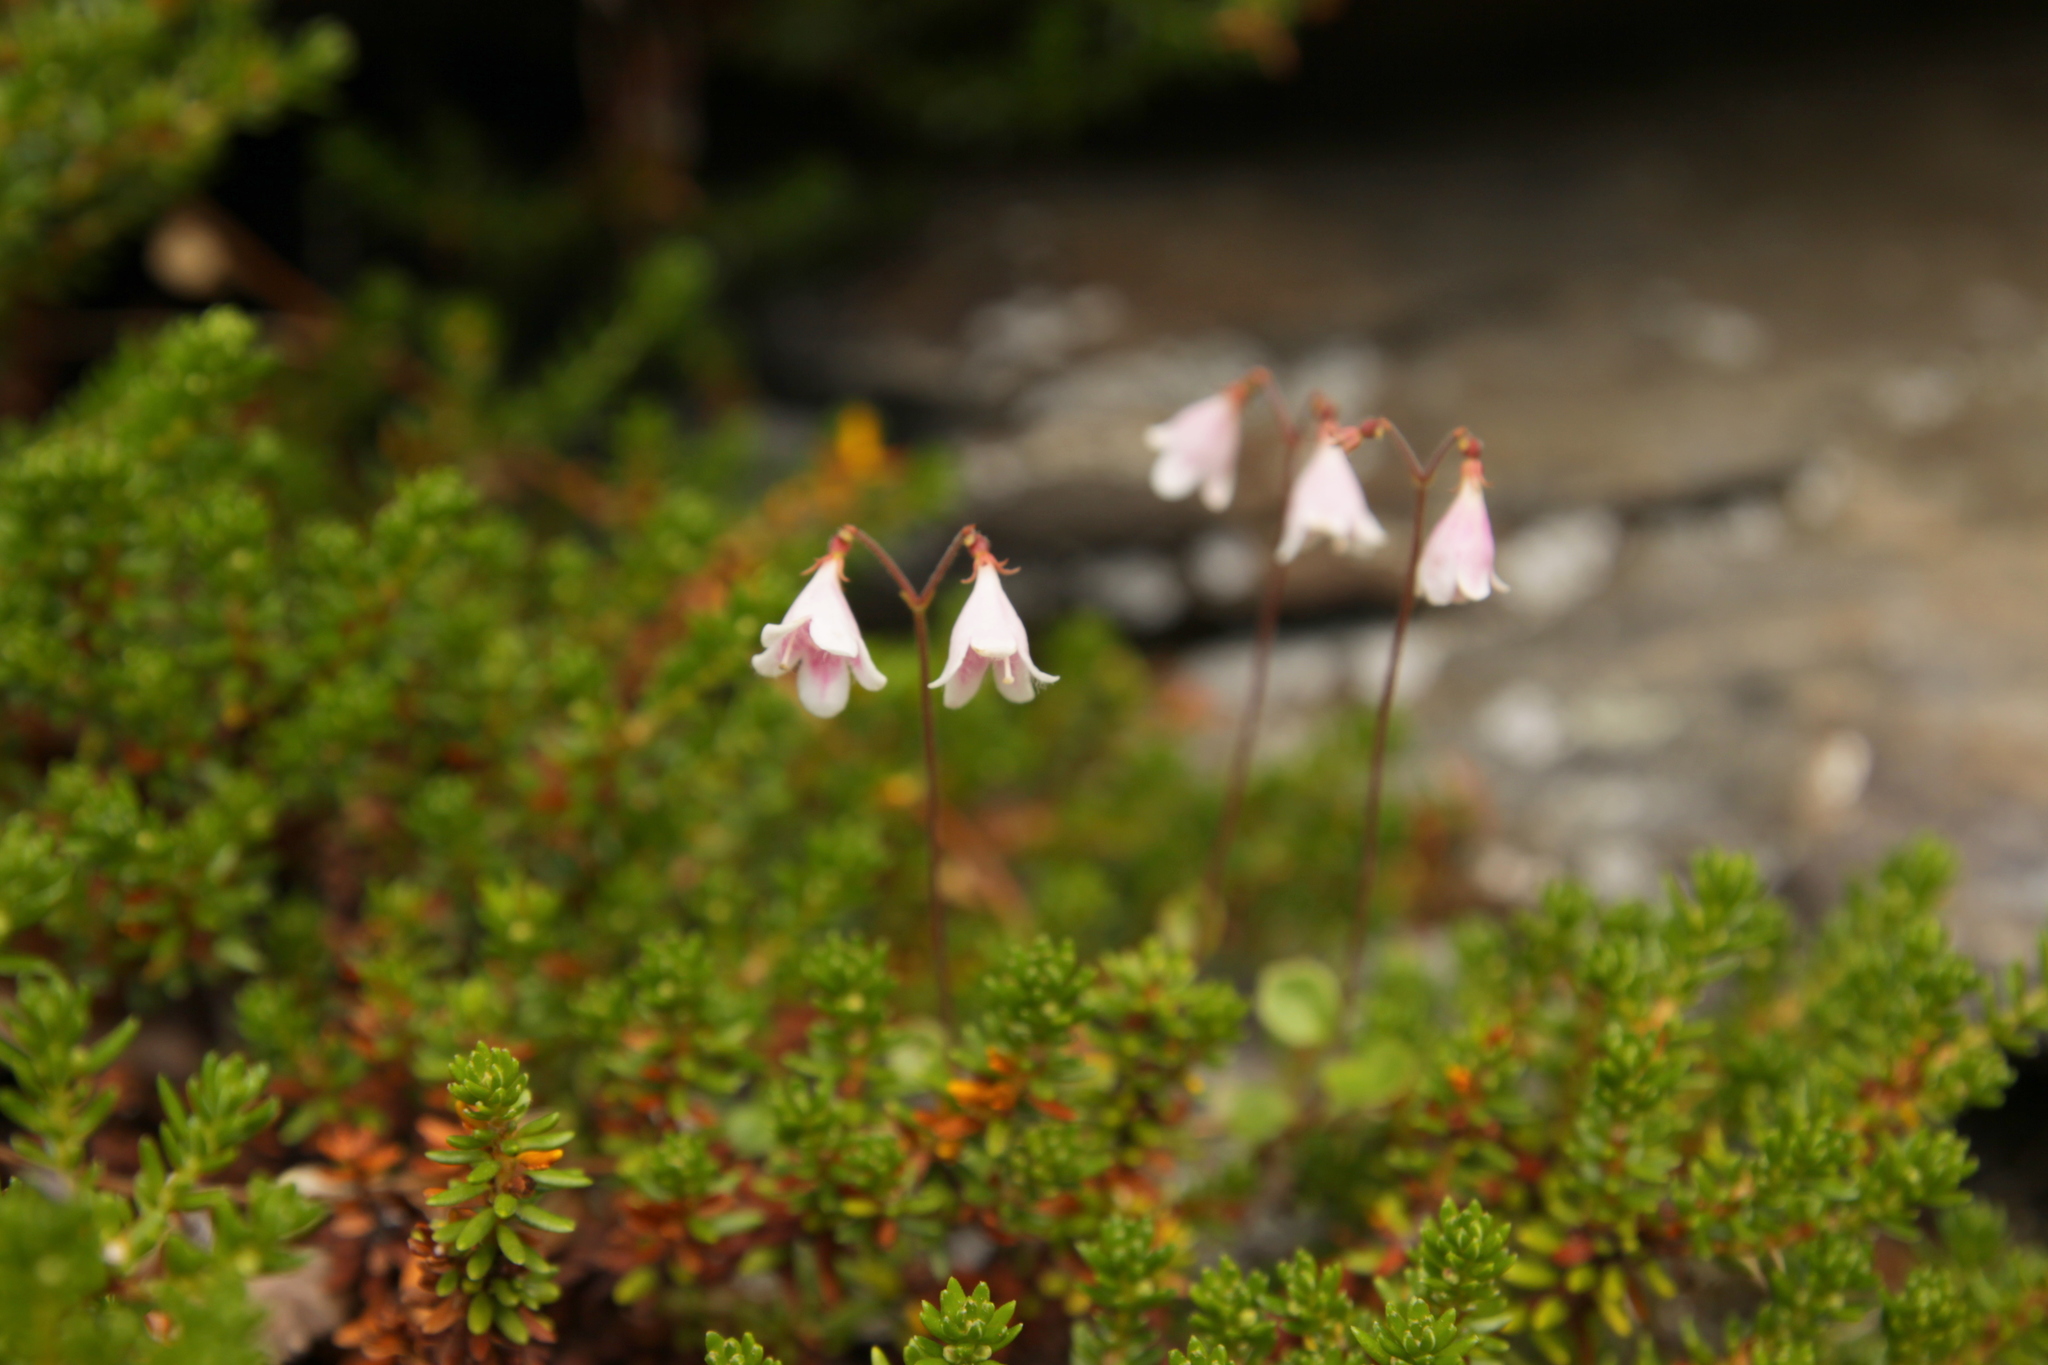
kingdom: Plantae
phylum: Tracheophyta
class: Magnoliopsida
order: Dipsacales
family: Caprifoliaceae
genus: Linnaea
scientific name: Linnaea borealis
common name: Twinflower
